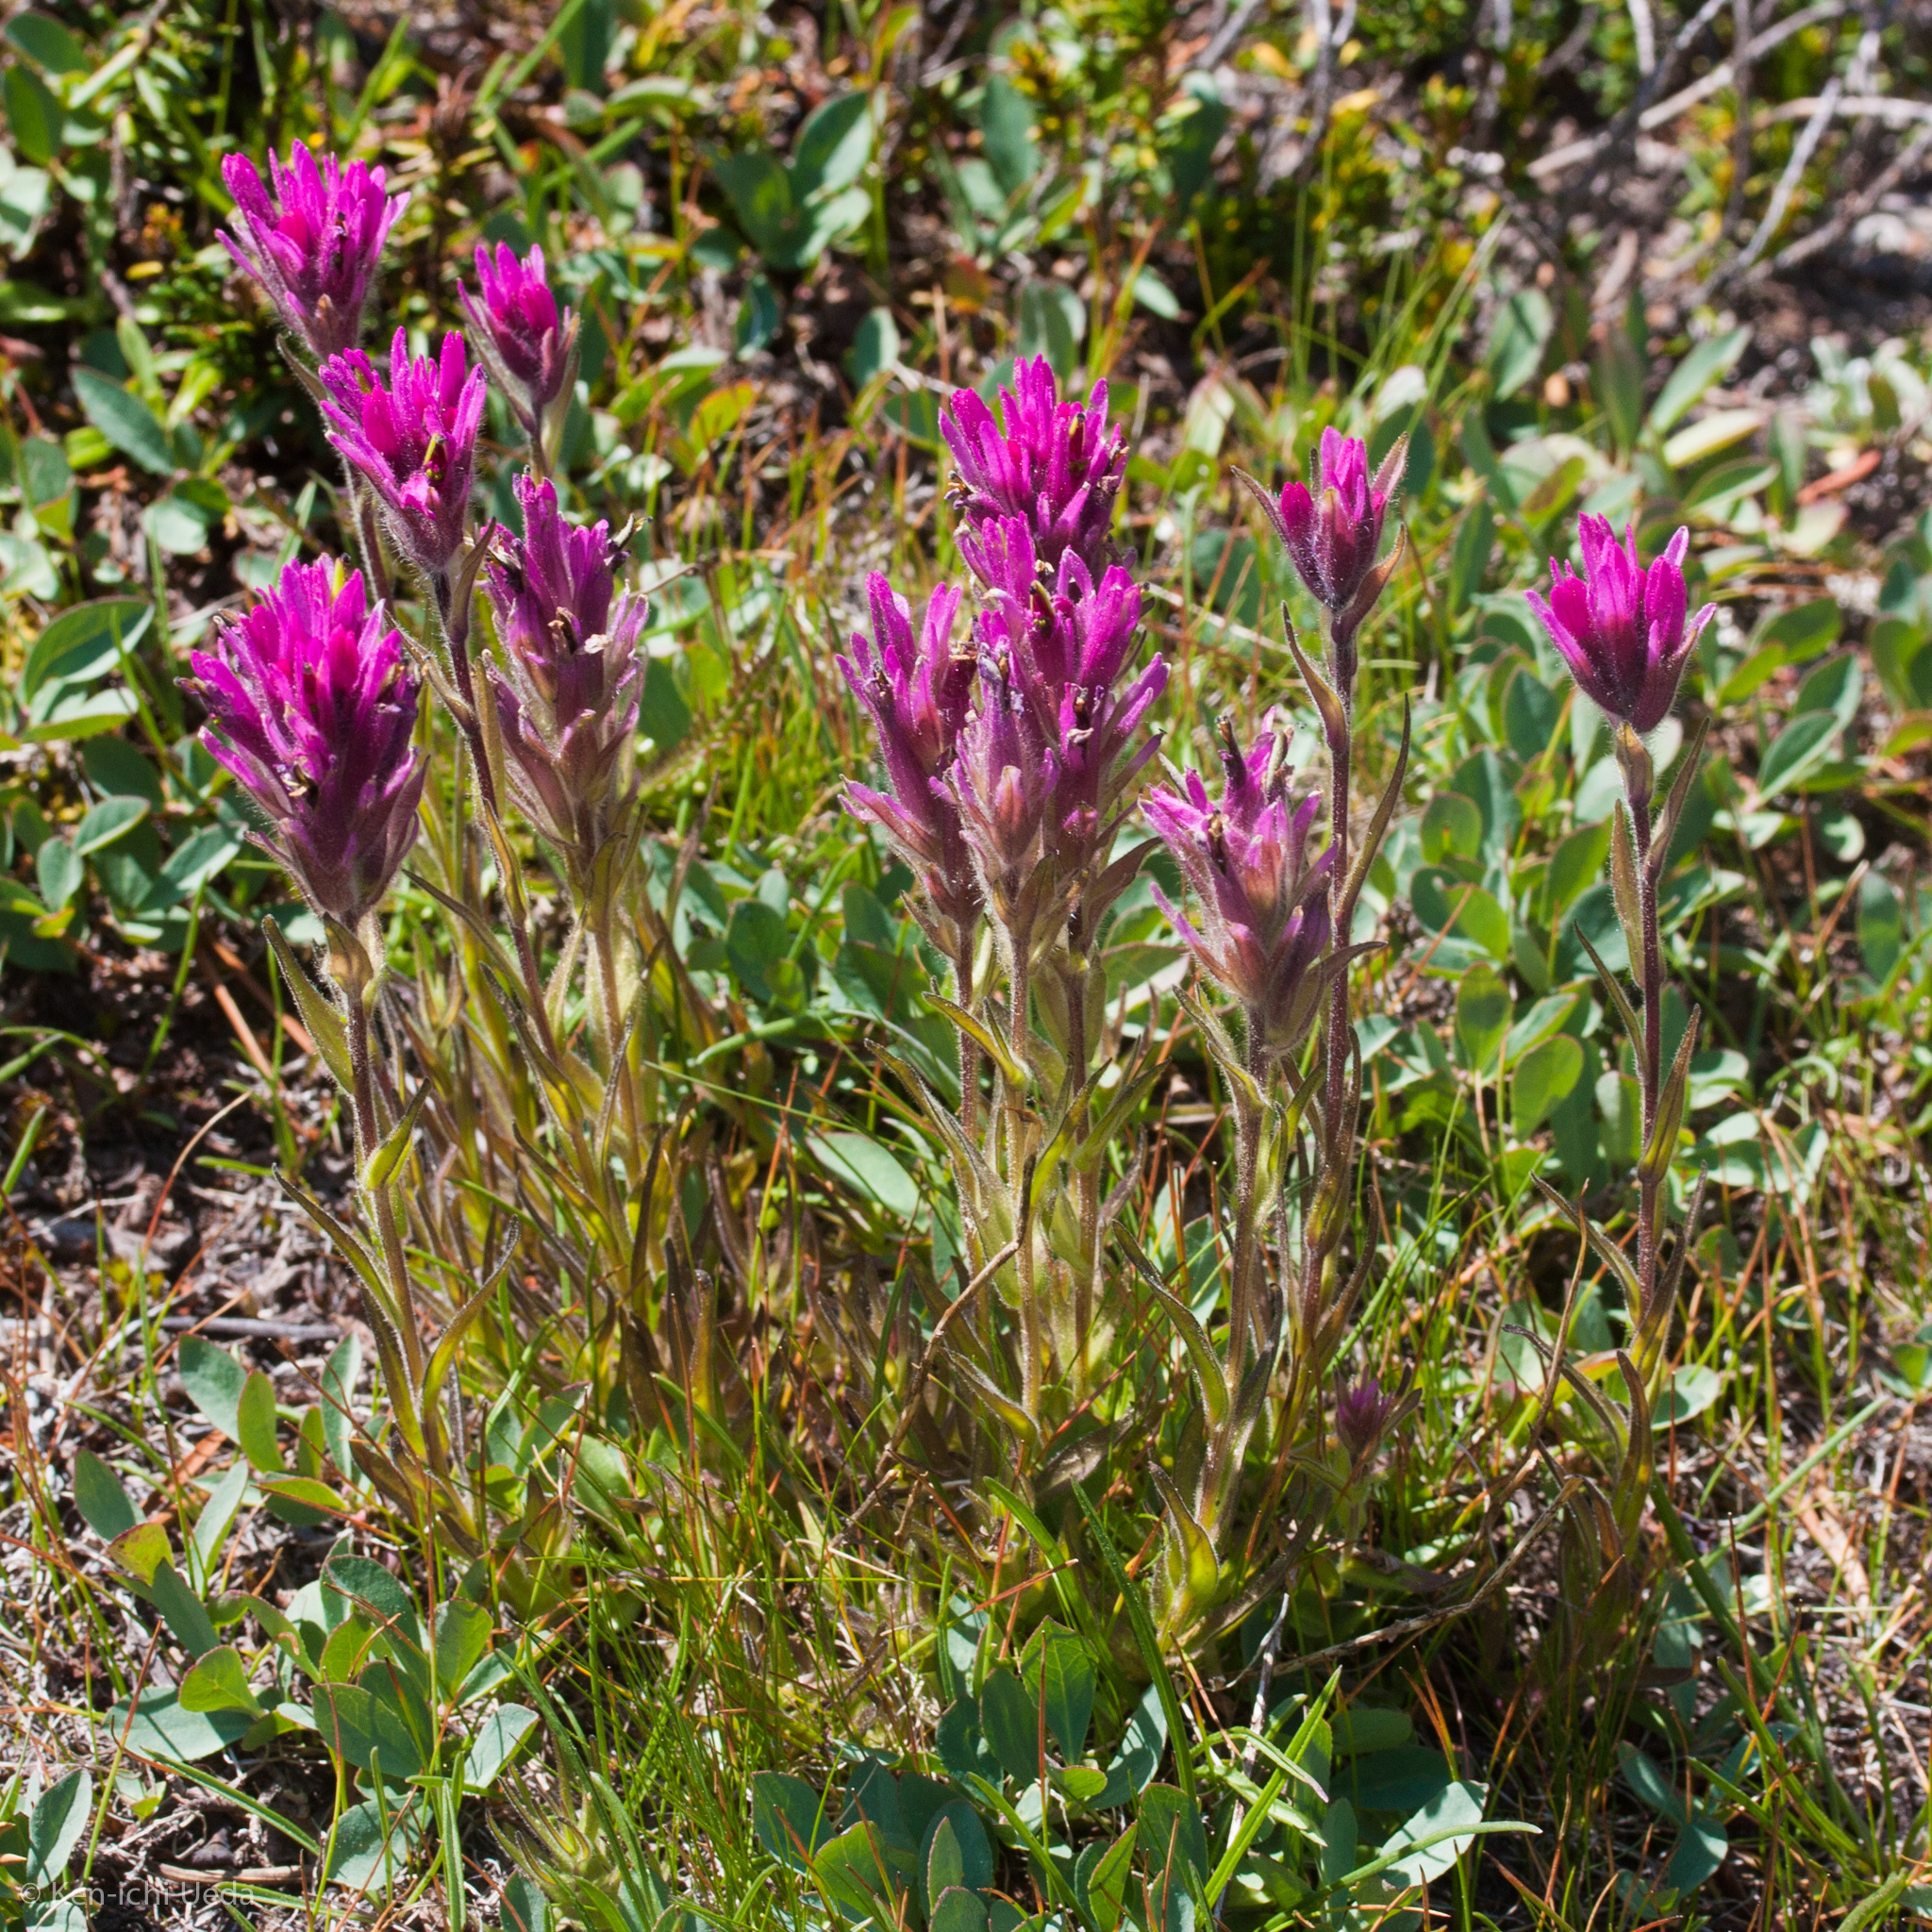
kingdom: Plantae
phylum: Tracheophyta
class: Magnoliopsida
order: Lamiales
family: Orobanchaceae
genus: Castilleja
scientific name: Castilleja lemmonii
